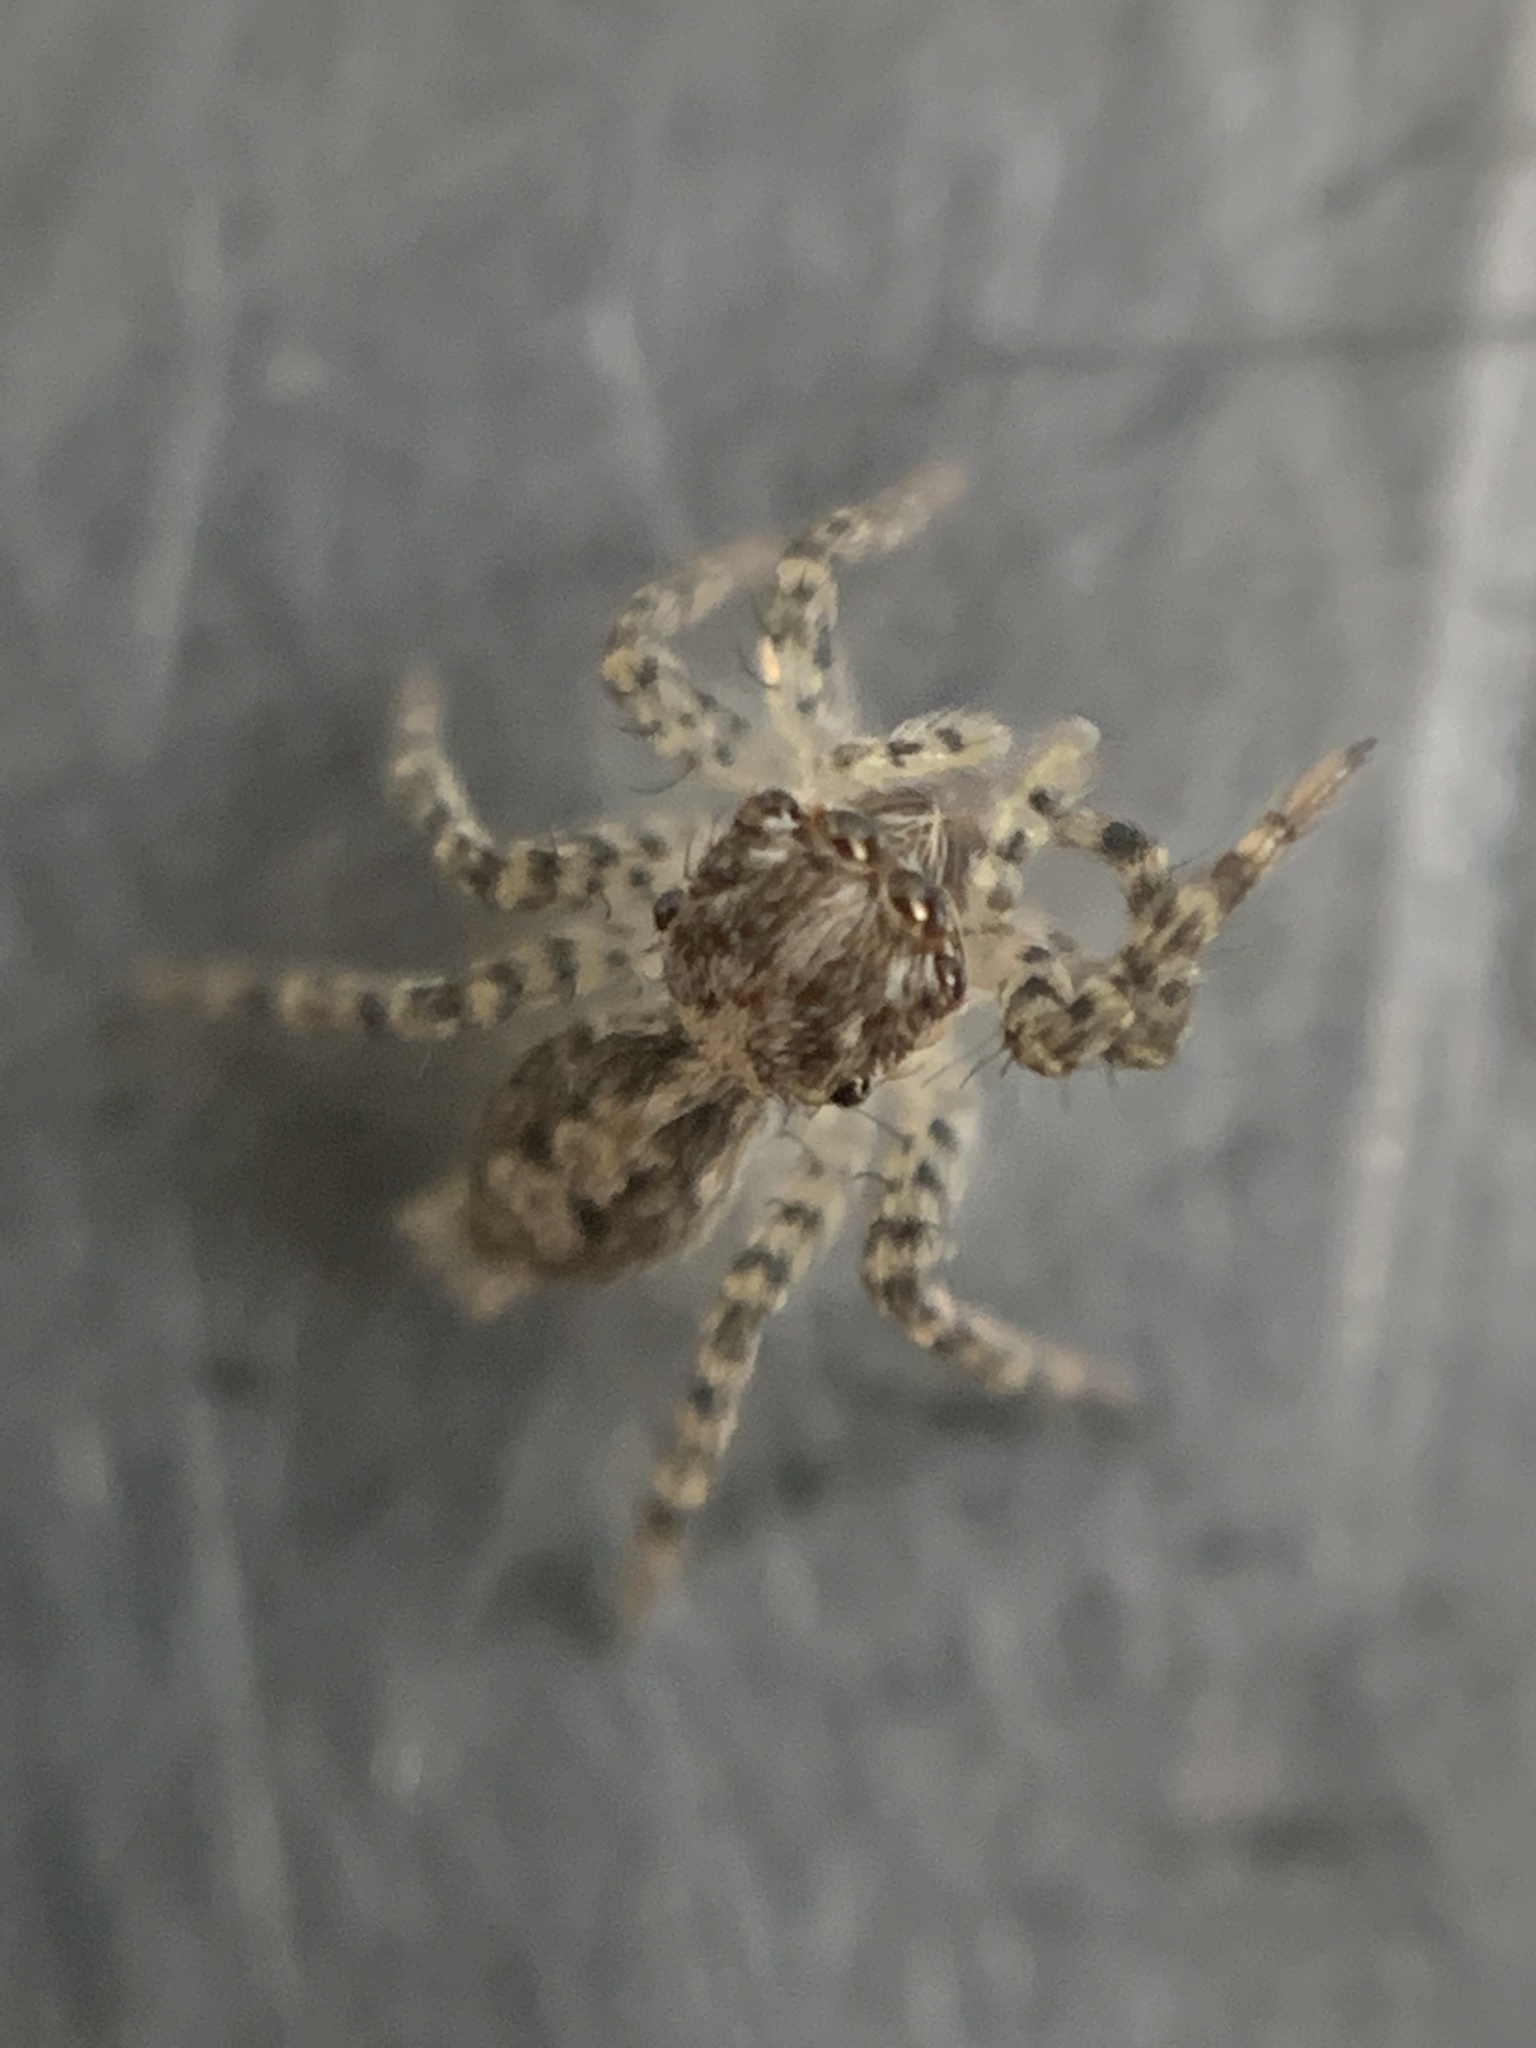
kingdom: Animalia
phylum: Arthropoda
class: Arachnida
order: Araneae
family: Salticidae
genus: Saitis
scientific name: Saitis variegatus
